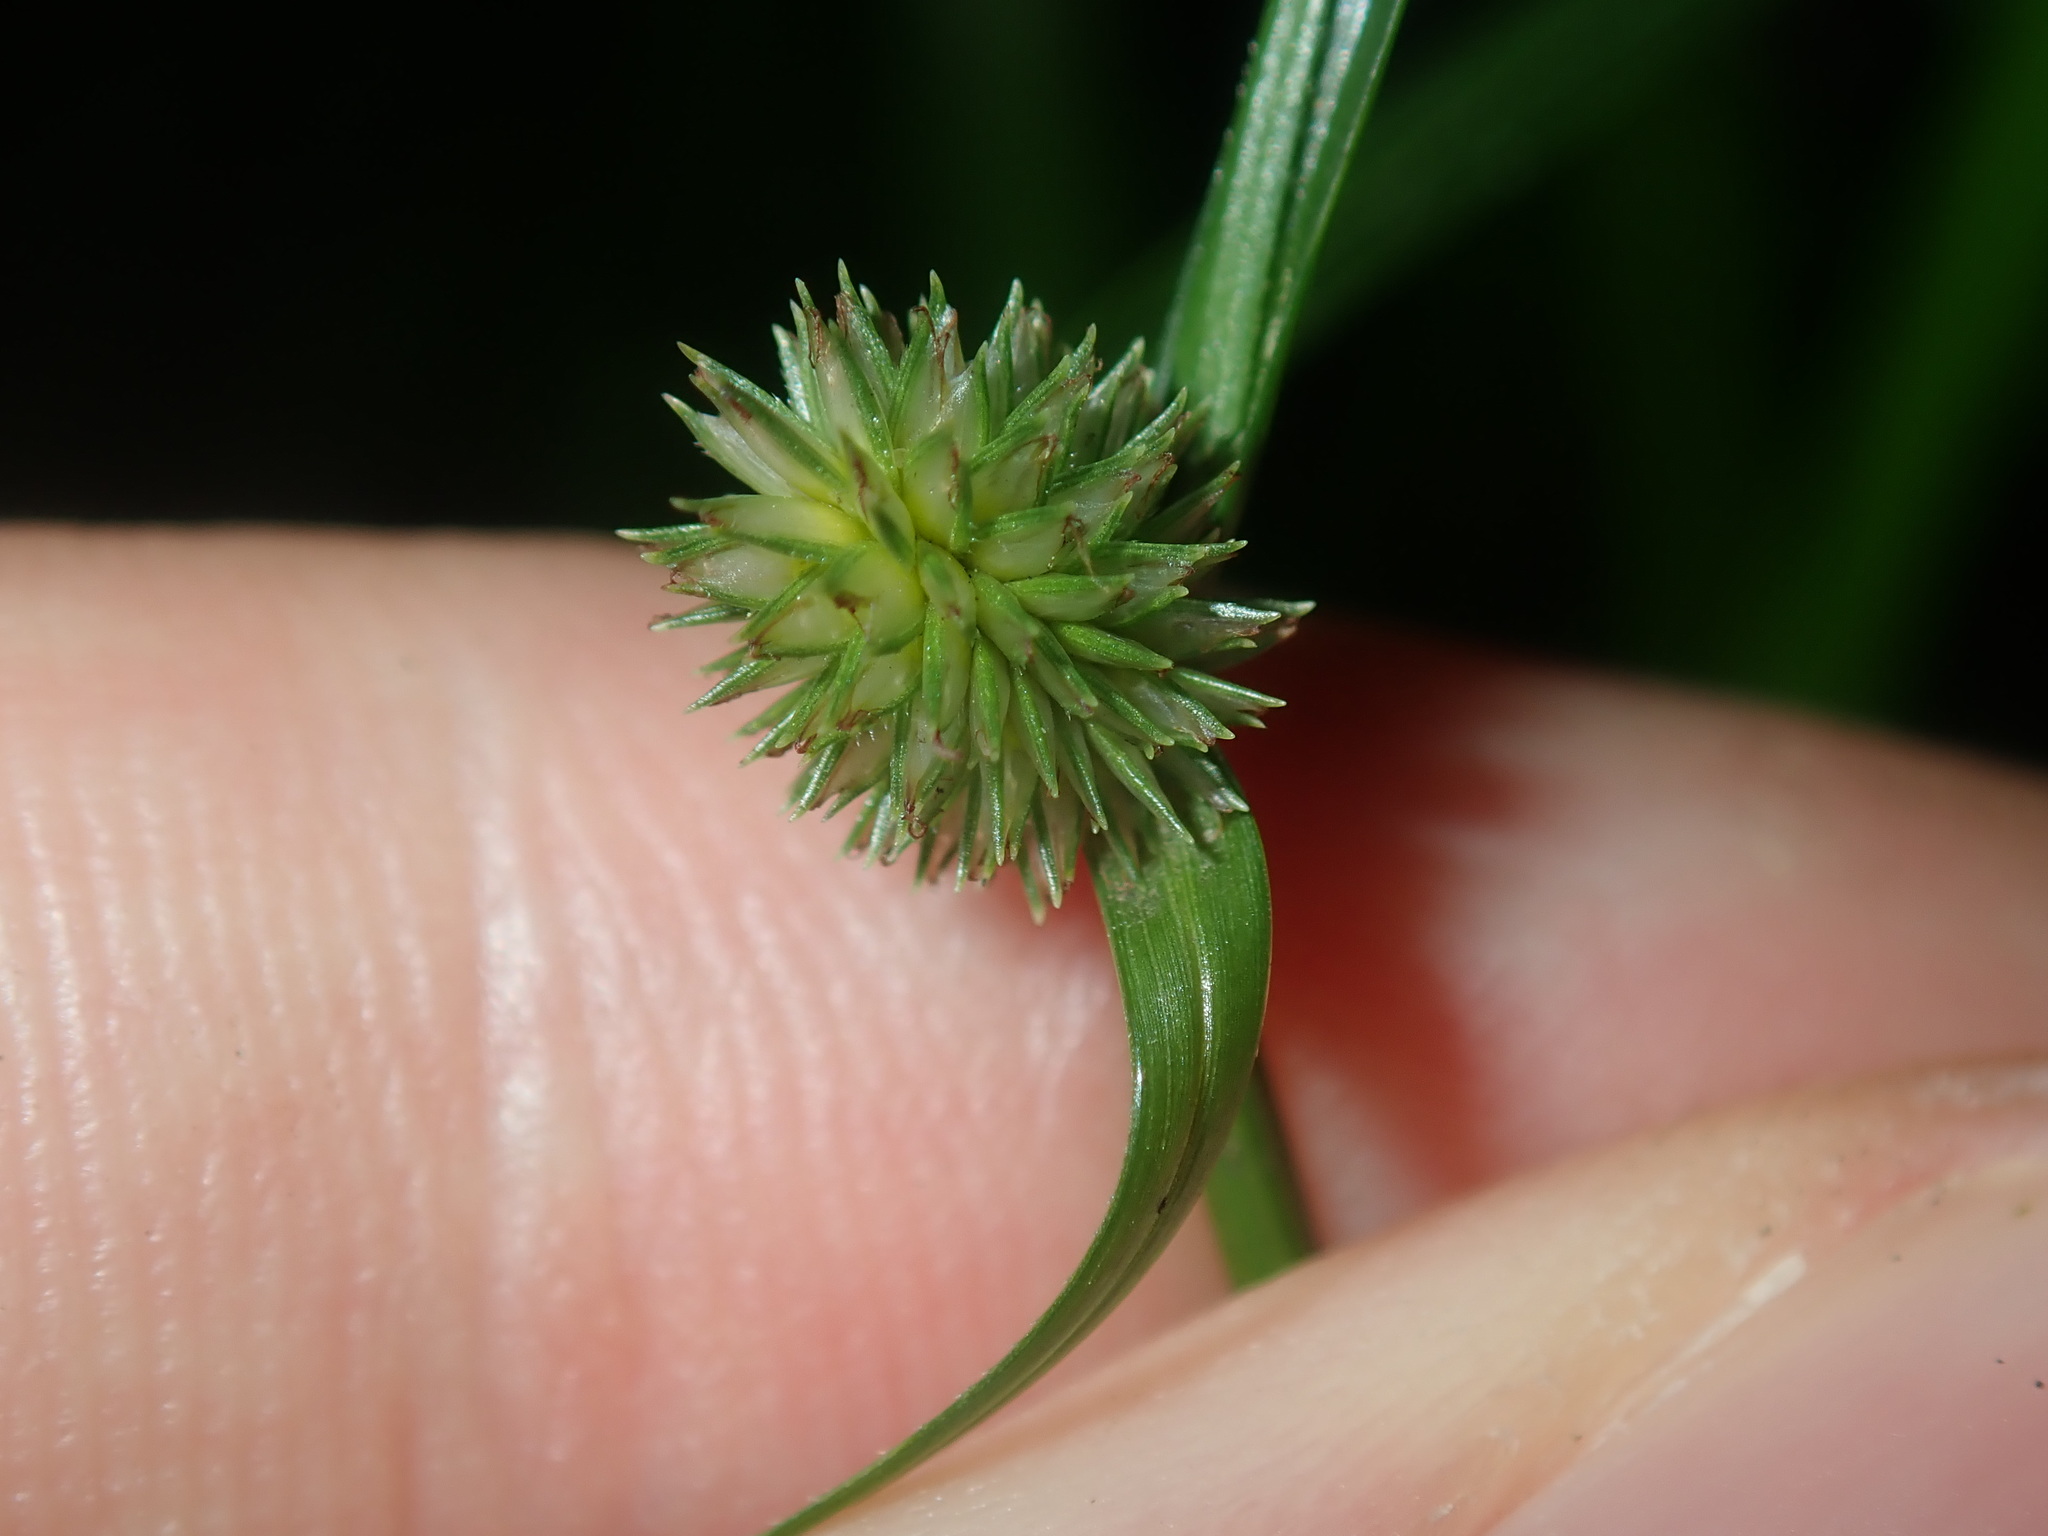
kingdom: Plantae
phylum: Tracheophyta
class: Liliopsida
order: Poales
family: Cyperaceae
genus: Cyperus
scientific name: Cyperus brevifolius
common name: Globe kyllinga
